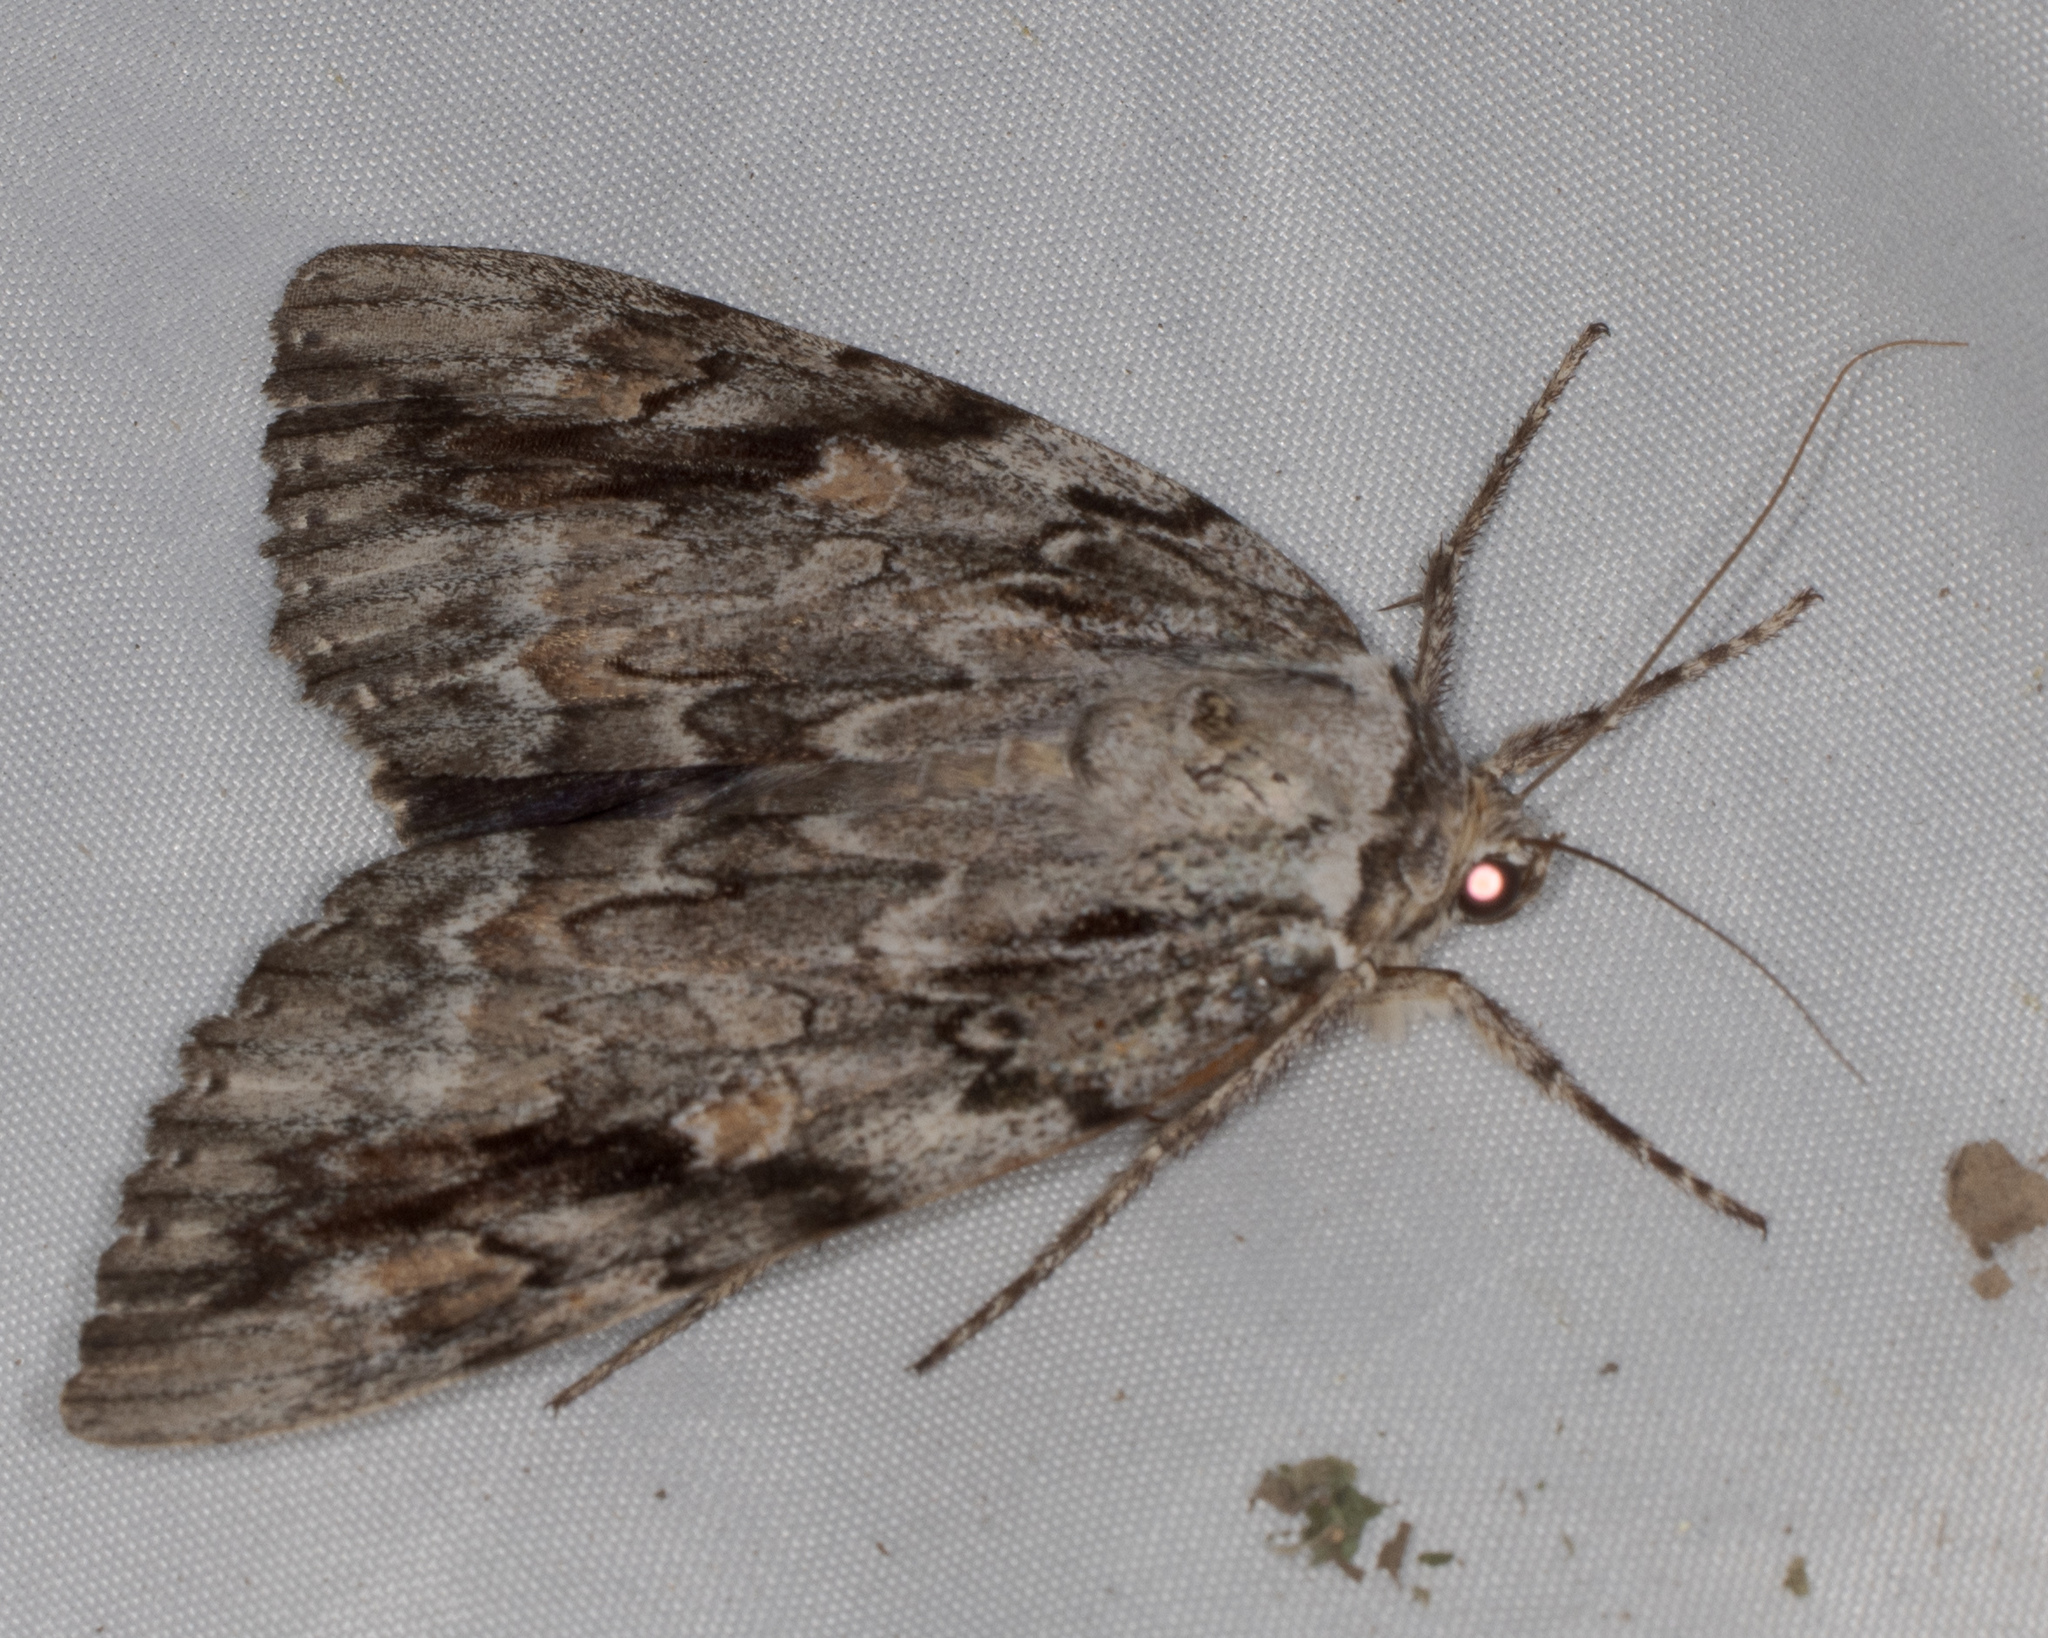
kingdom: Animalia
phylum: Arthropoda
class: Insecta
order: Lepidoptera
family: Erebidae
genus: Catocala
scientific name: Catocala maestosa
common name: Sad underwing
